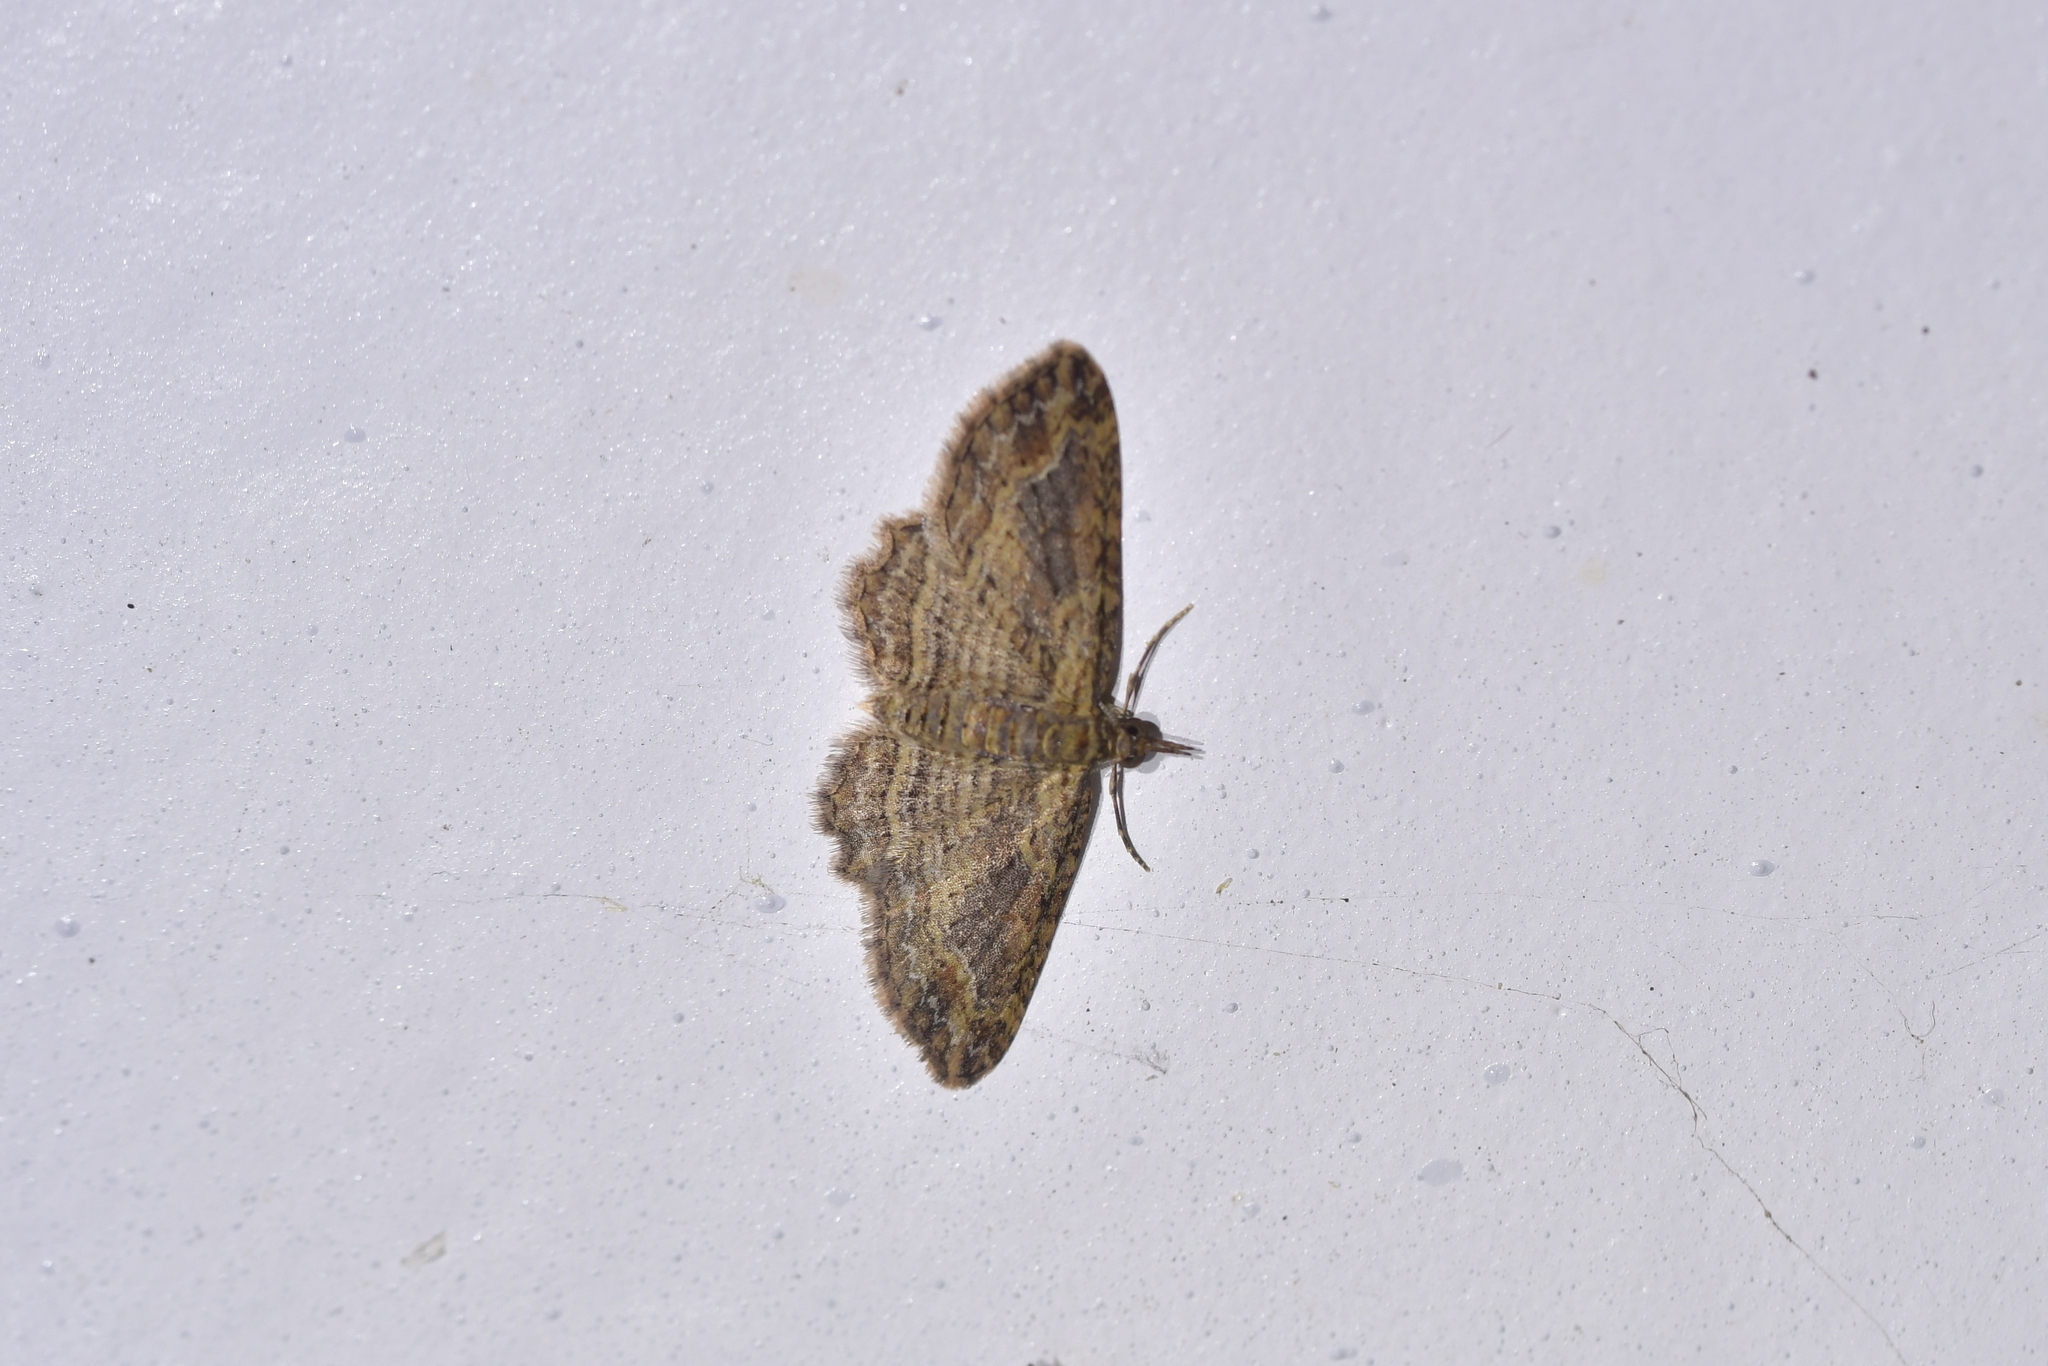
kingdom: Animalia
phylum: Arthropoda
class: Insecta
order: Lepidoptera
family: Geometridae
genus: Chloroclystis
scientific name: Chloroclystis filata
